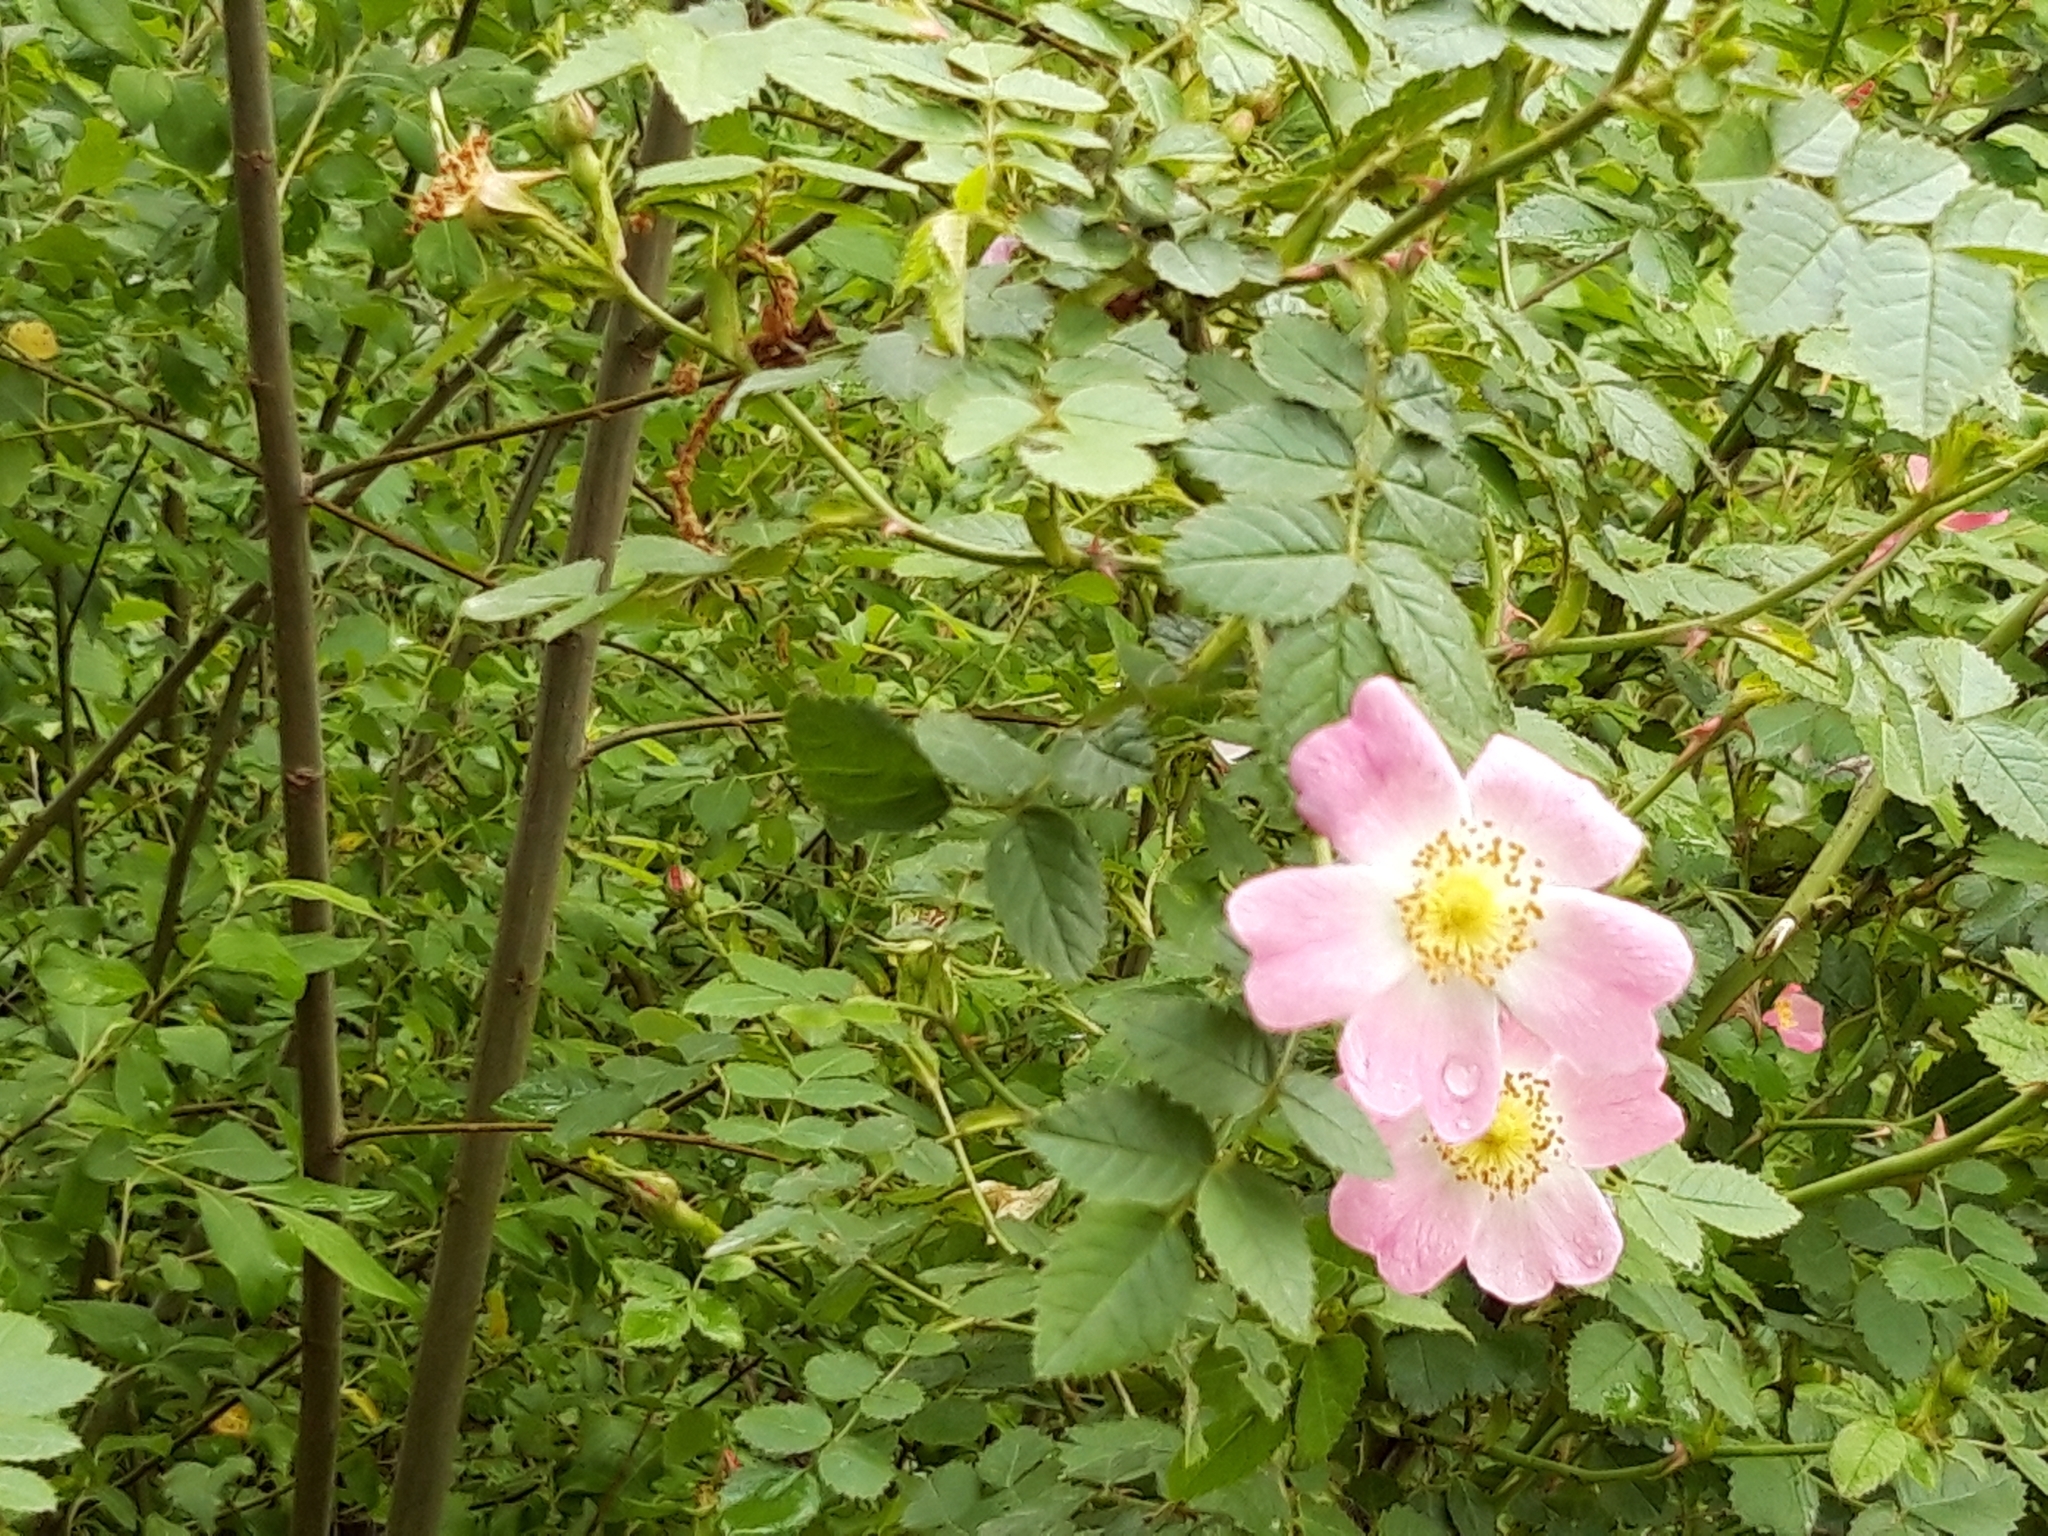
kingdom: Plantae
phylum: Tracheophyta
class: Magnoliopsida
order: Rosales
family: Rosaceae
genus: Rosa
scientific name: Rosa canina
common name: Dog rose
